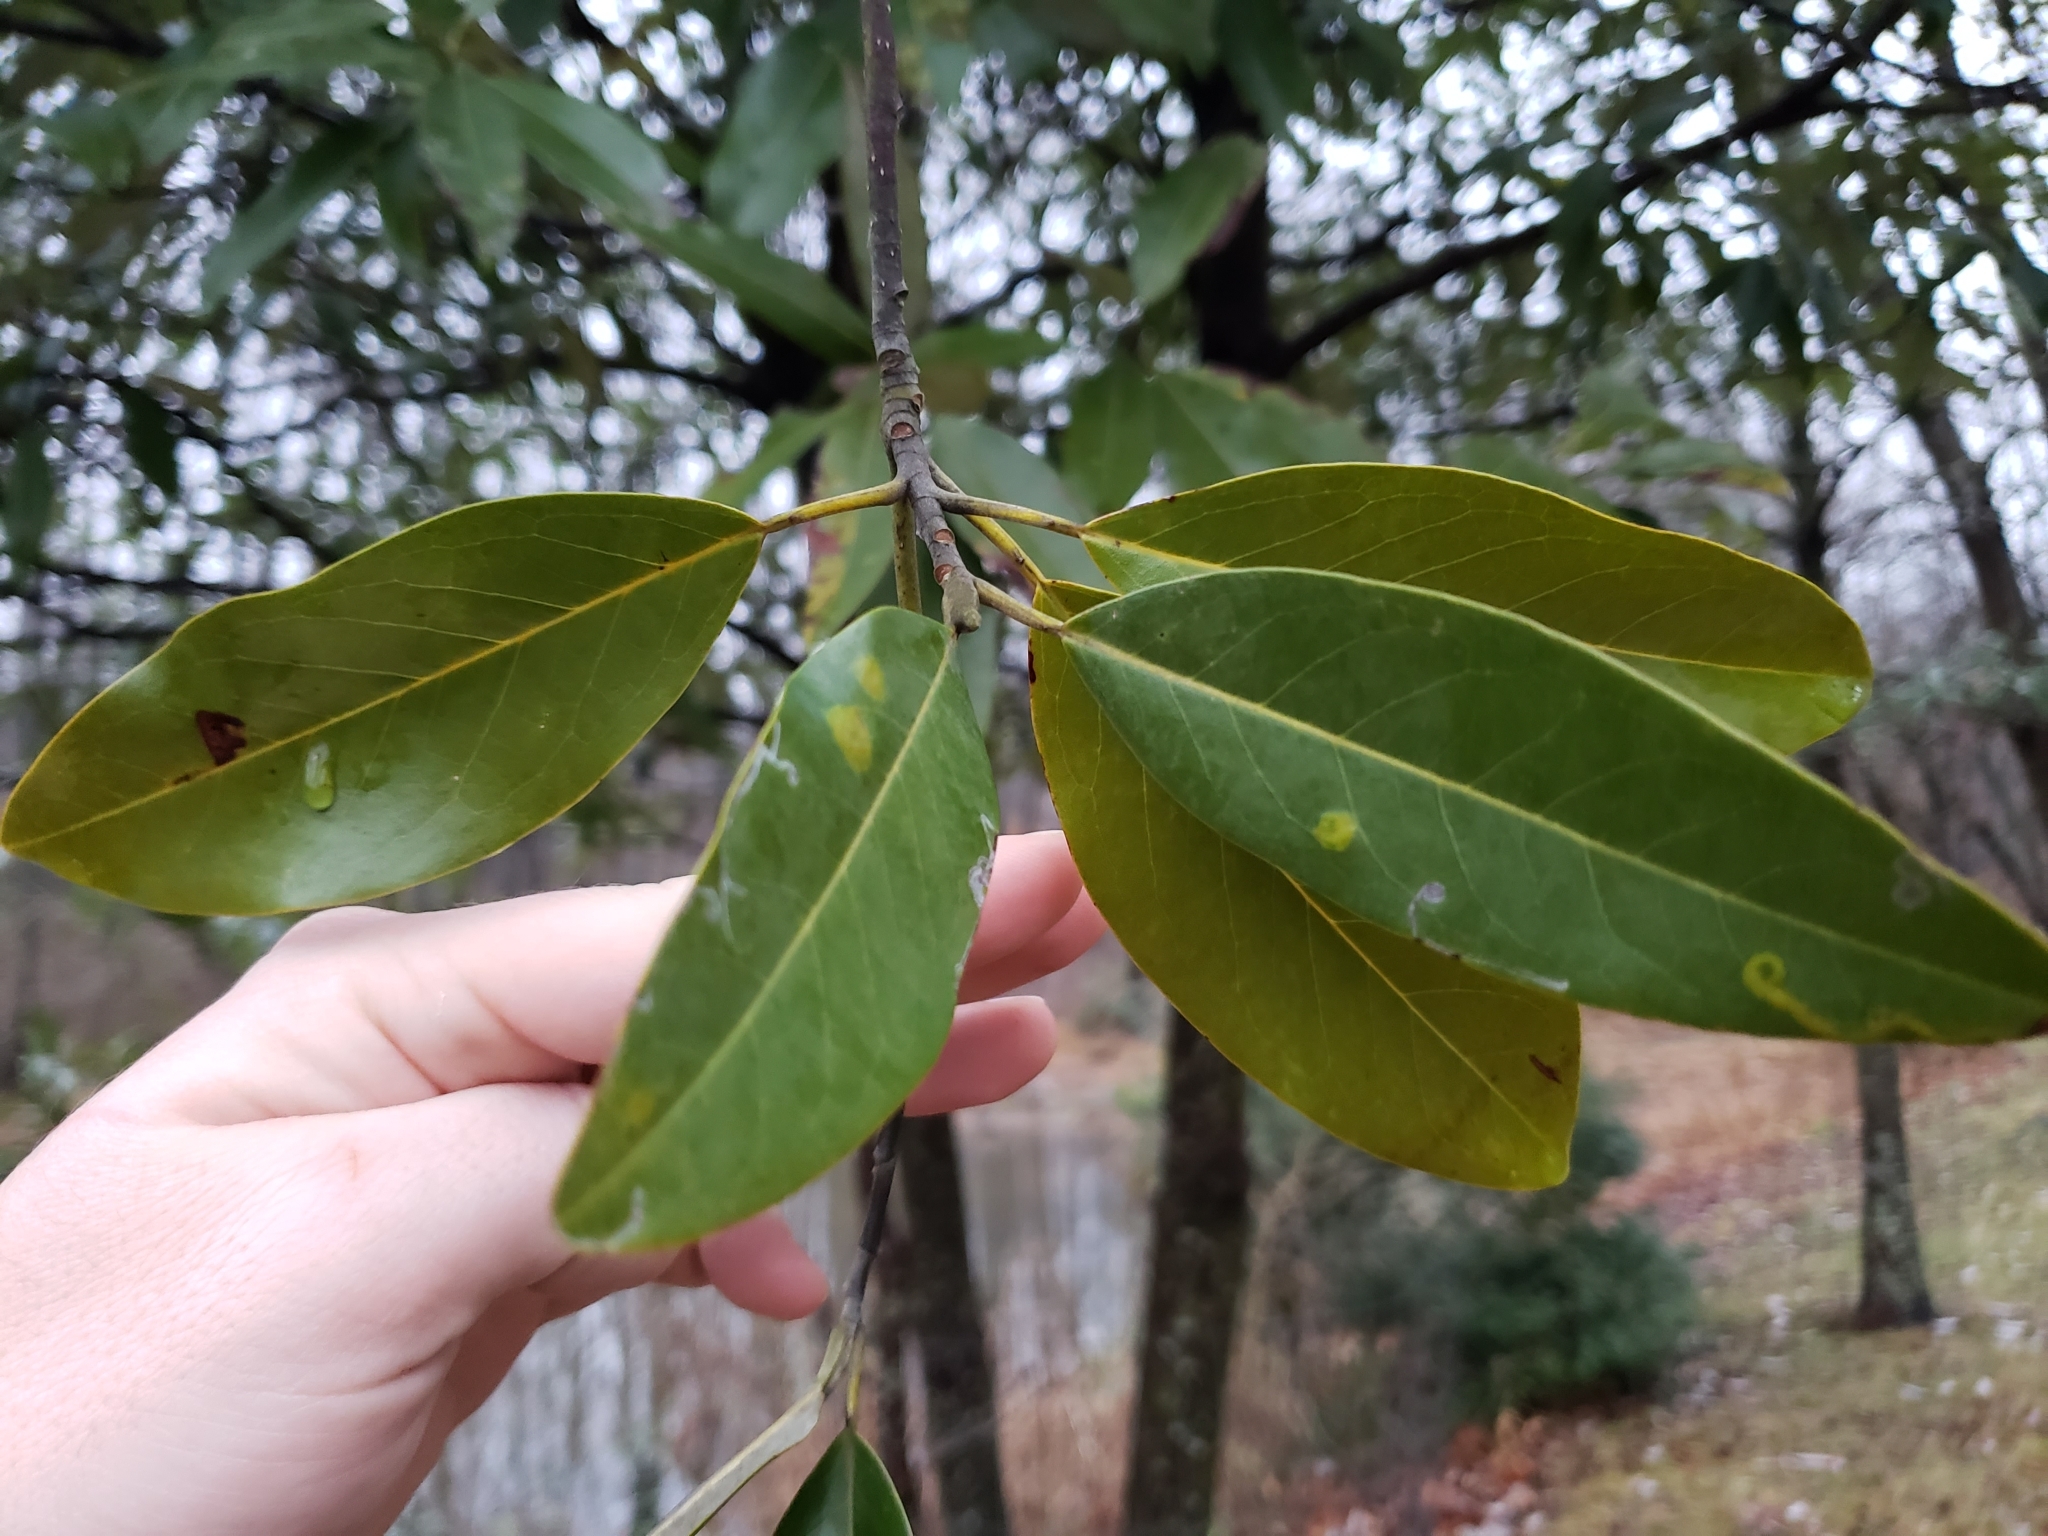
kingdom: Plantae
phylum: Tracheophyta
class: Magnoliopsida
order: Magnoliales
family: Magnoliaceae
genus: Magnolia
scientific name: Magnolia virginiana
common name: Swamp bay
